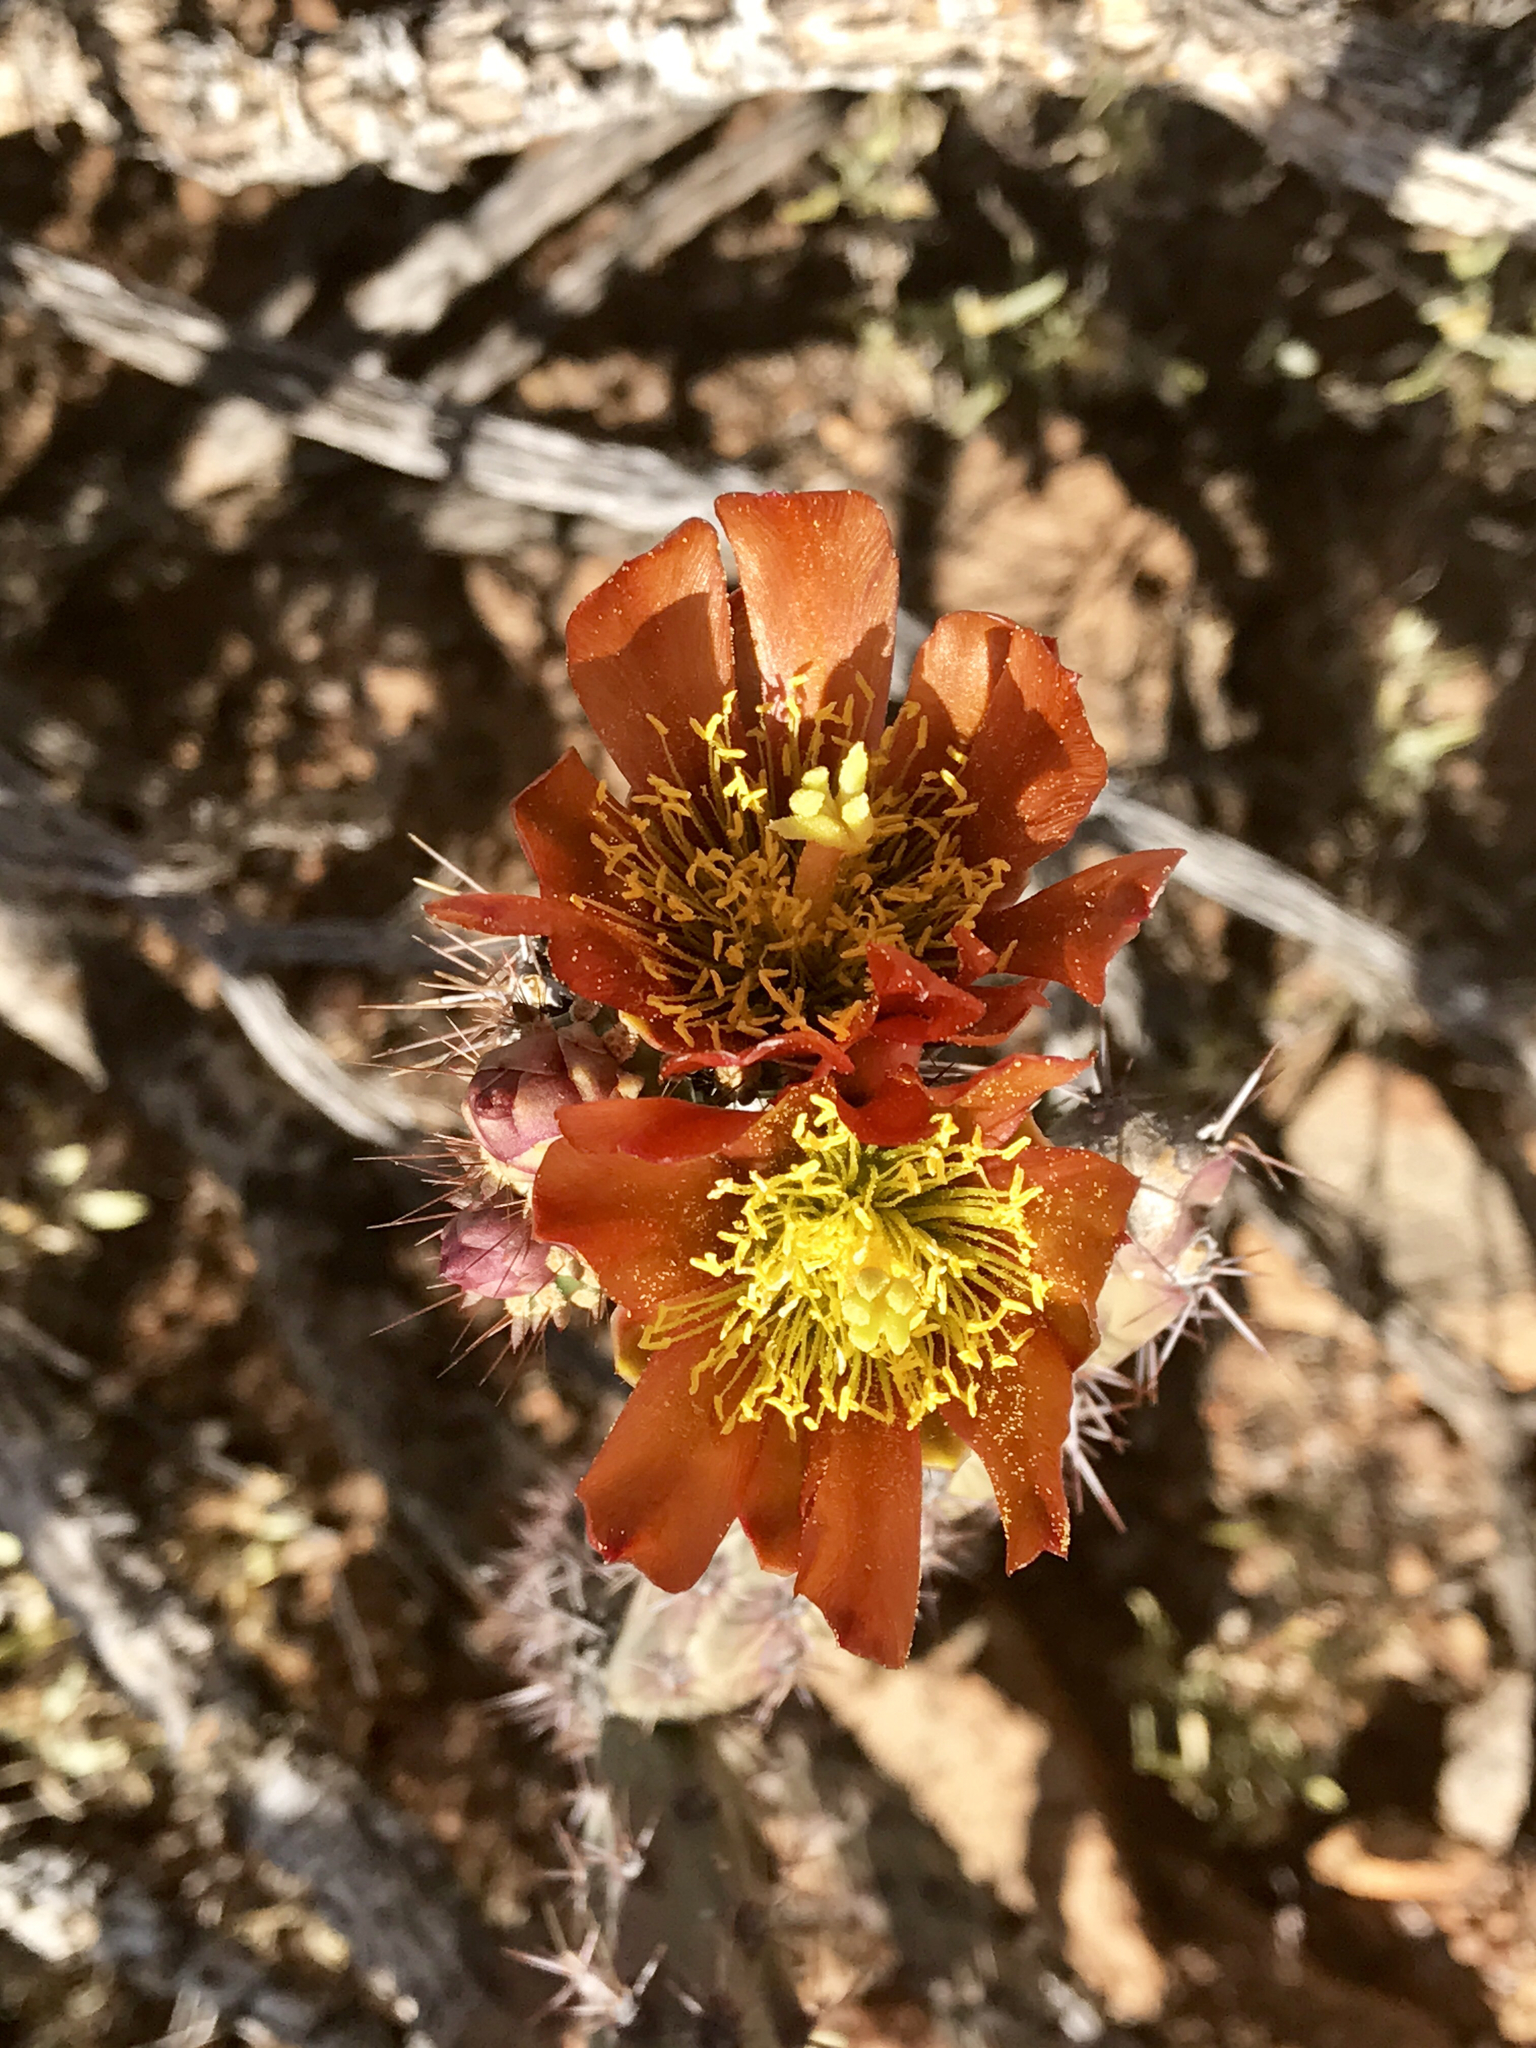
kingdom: Plantae
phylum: Tracheophyta
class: Magnoliopsida
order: Caryophyllales
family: Cactaceae
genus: Cylindropuntia
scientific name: Cylindropuntia thurberi
